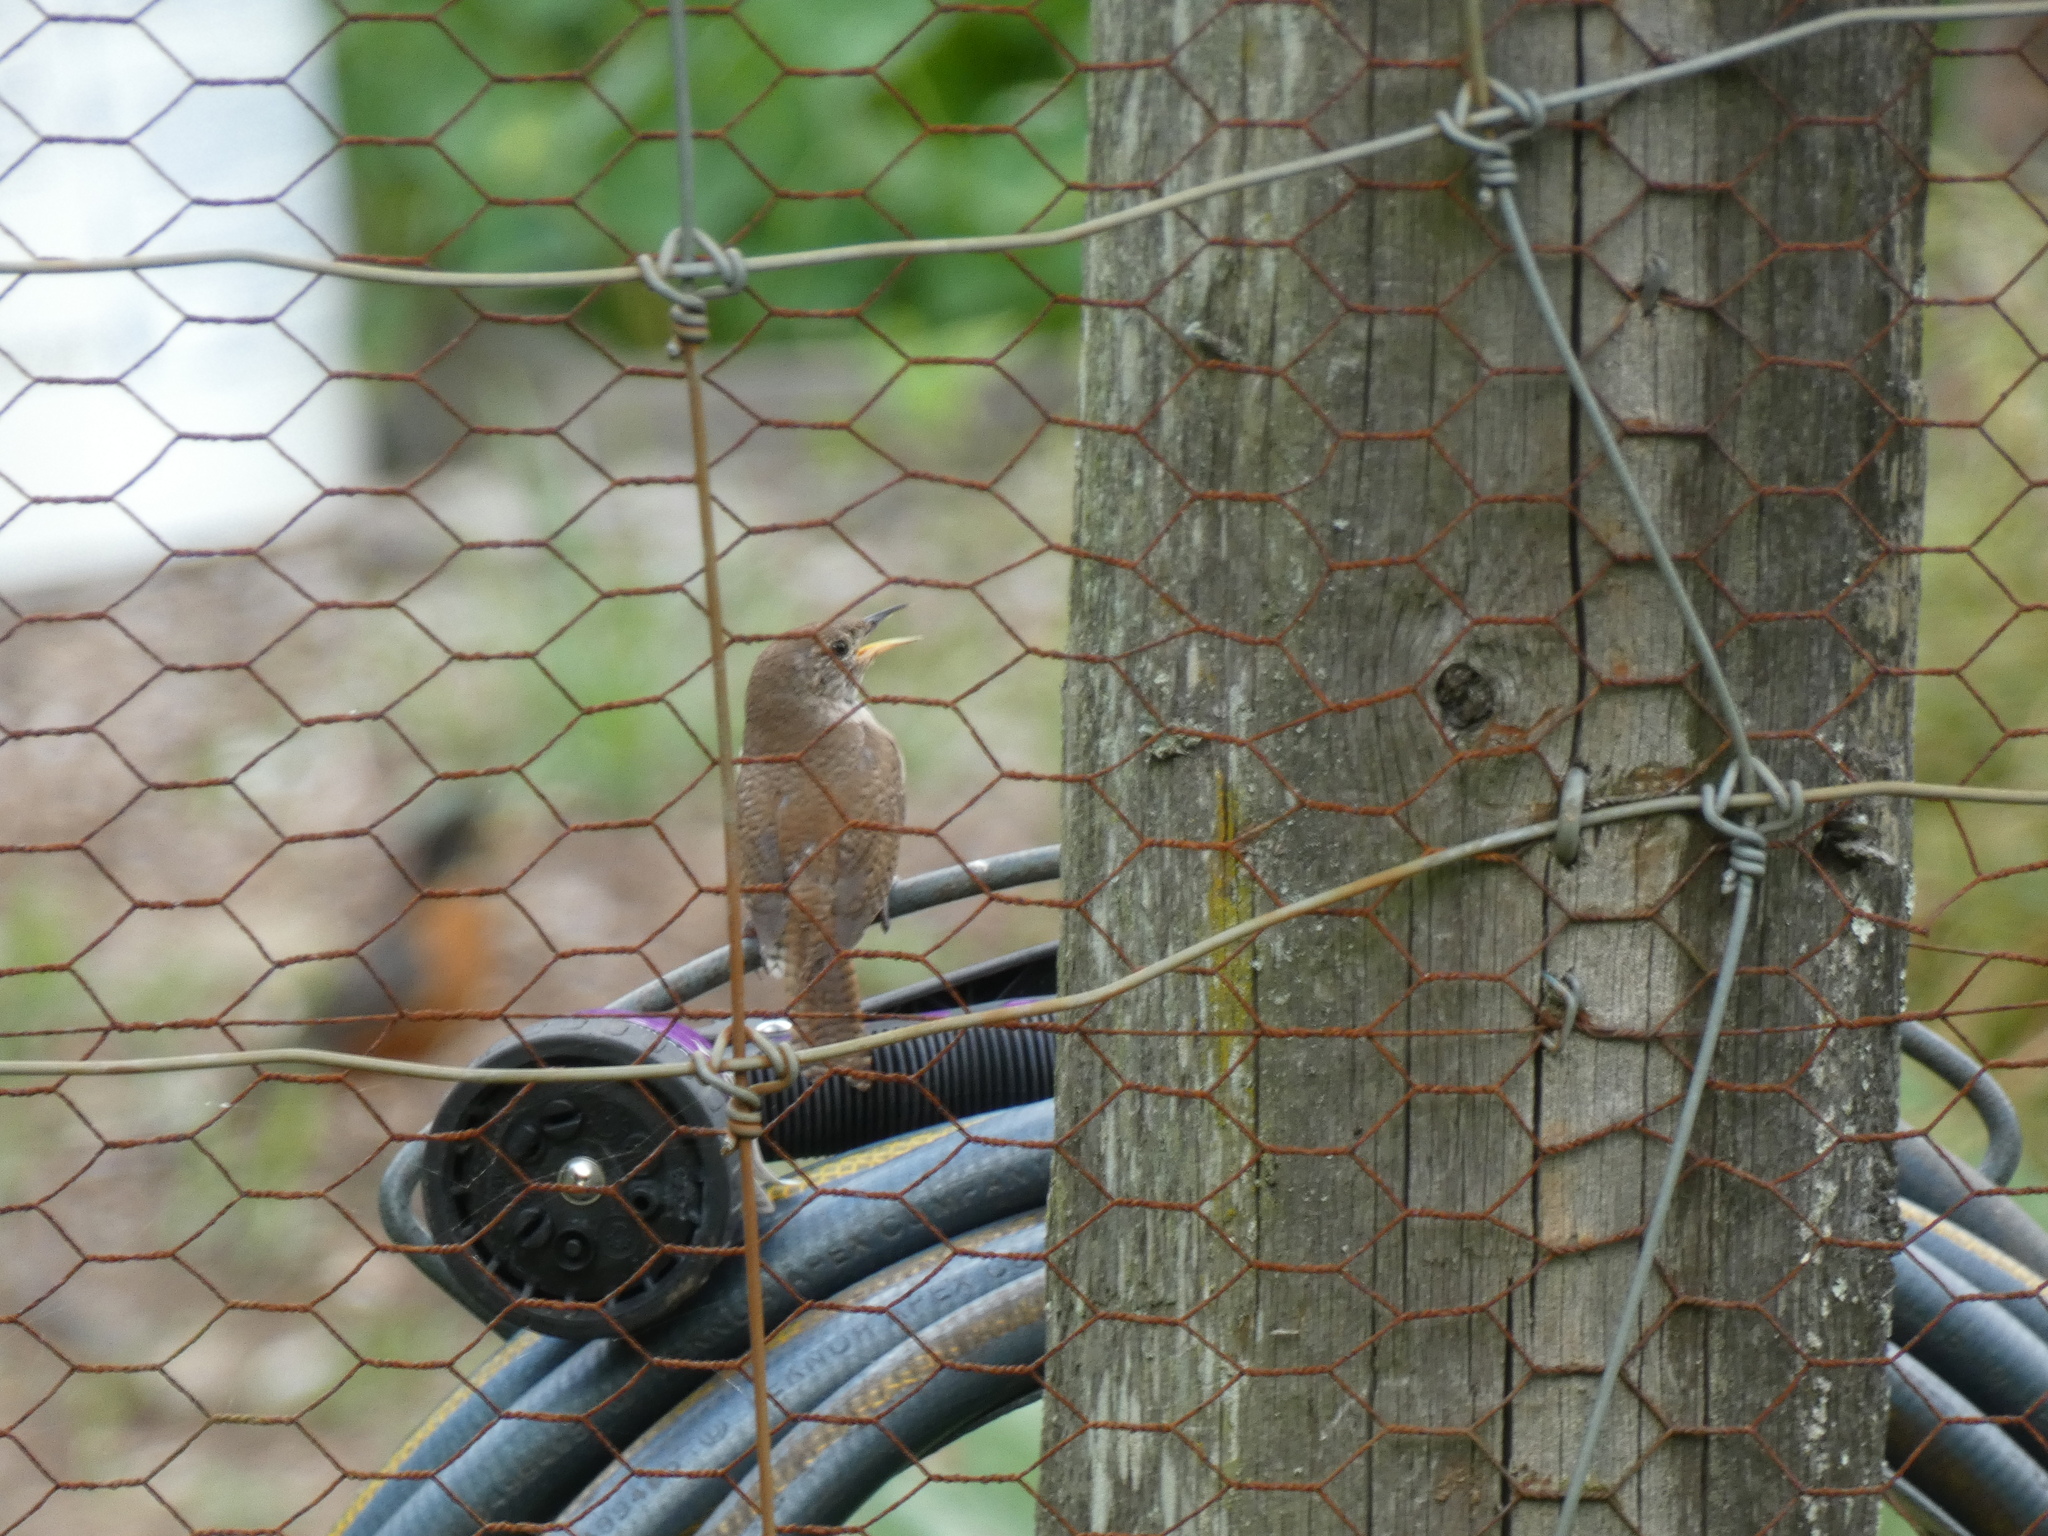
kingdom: Animalia
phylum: Chordata
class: Aves
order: Passeriformes
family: Troglodytidae
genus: Troglodytes
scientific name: Troglodytes aedon
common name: House wren
